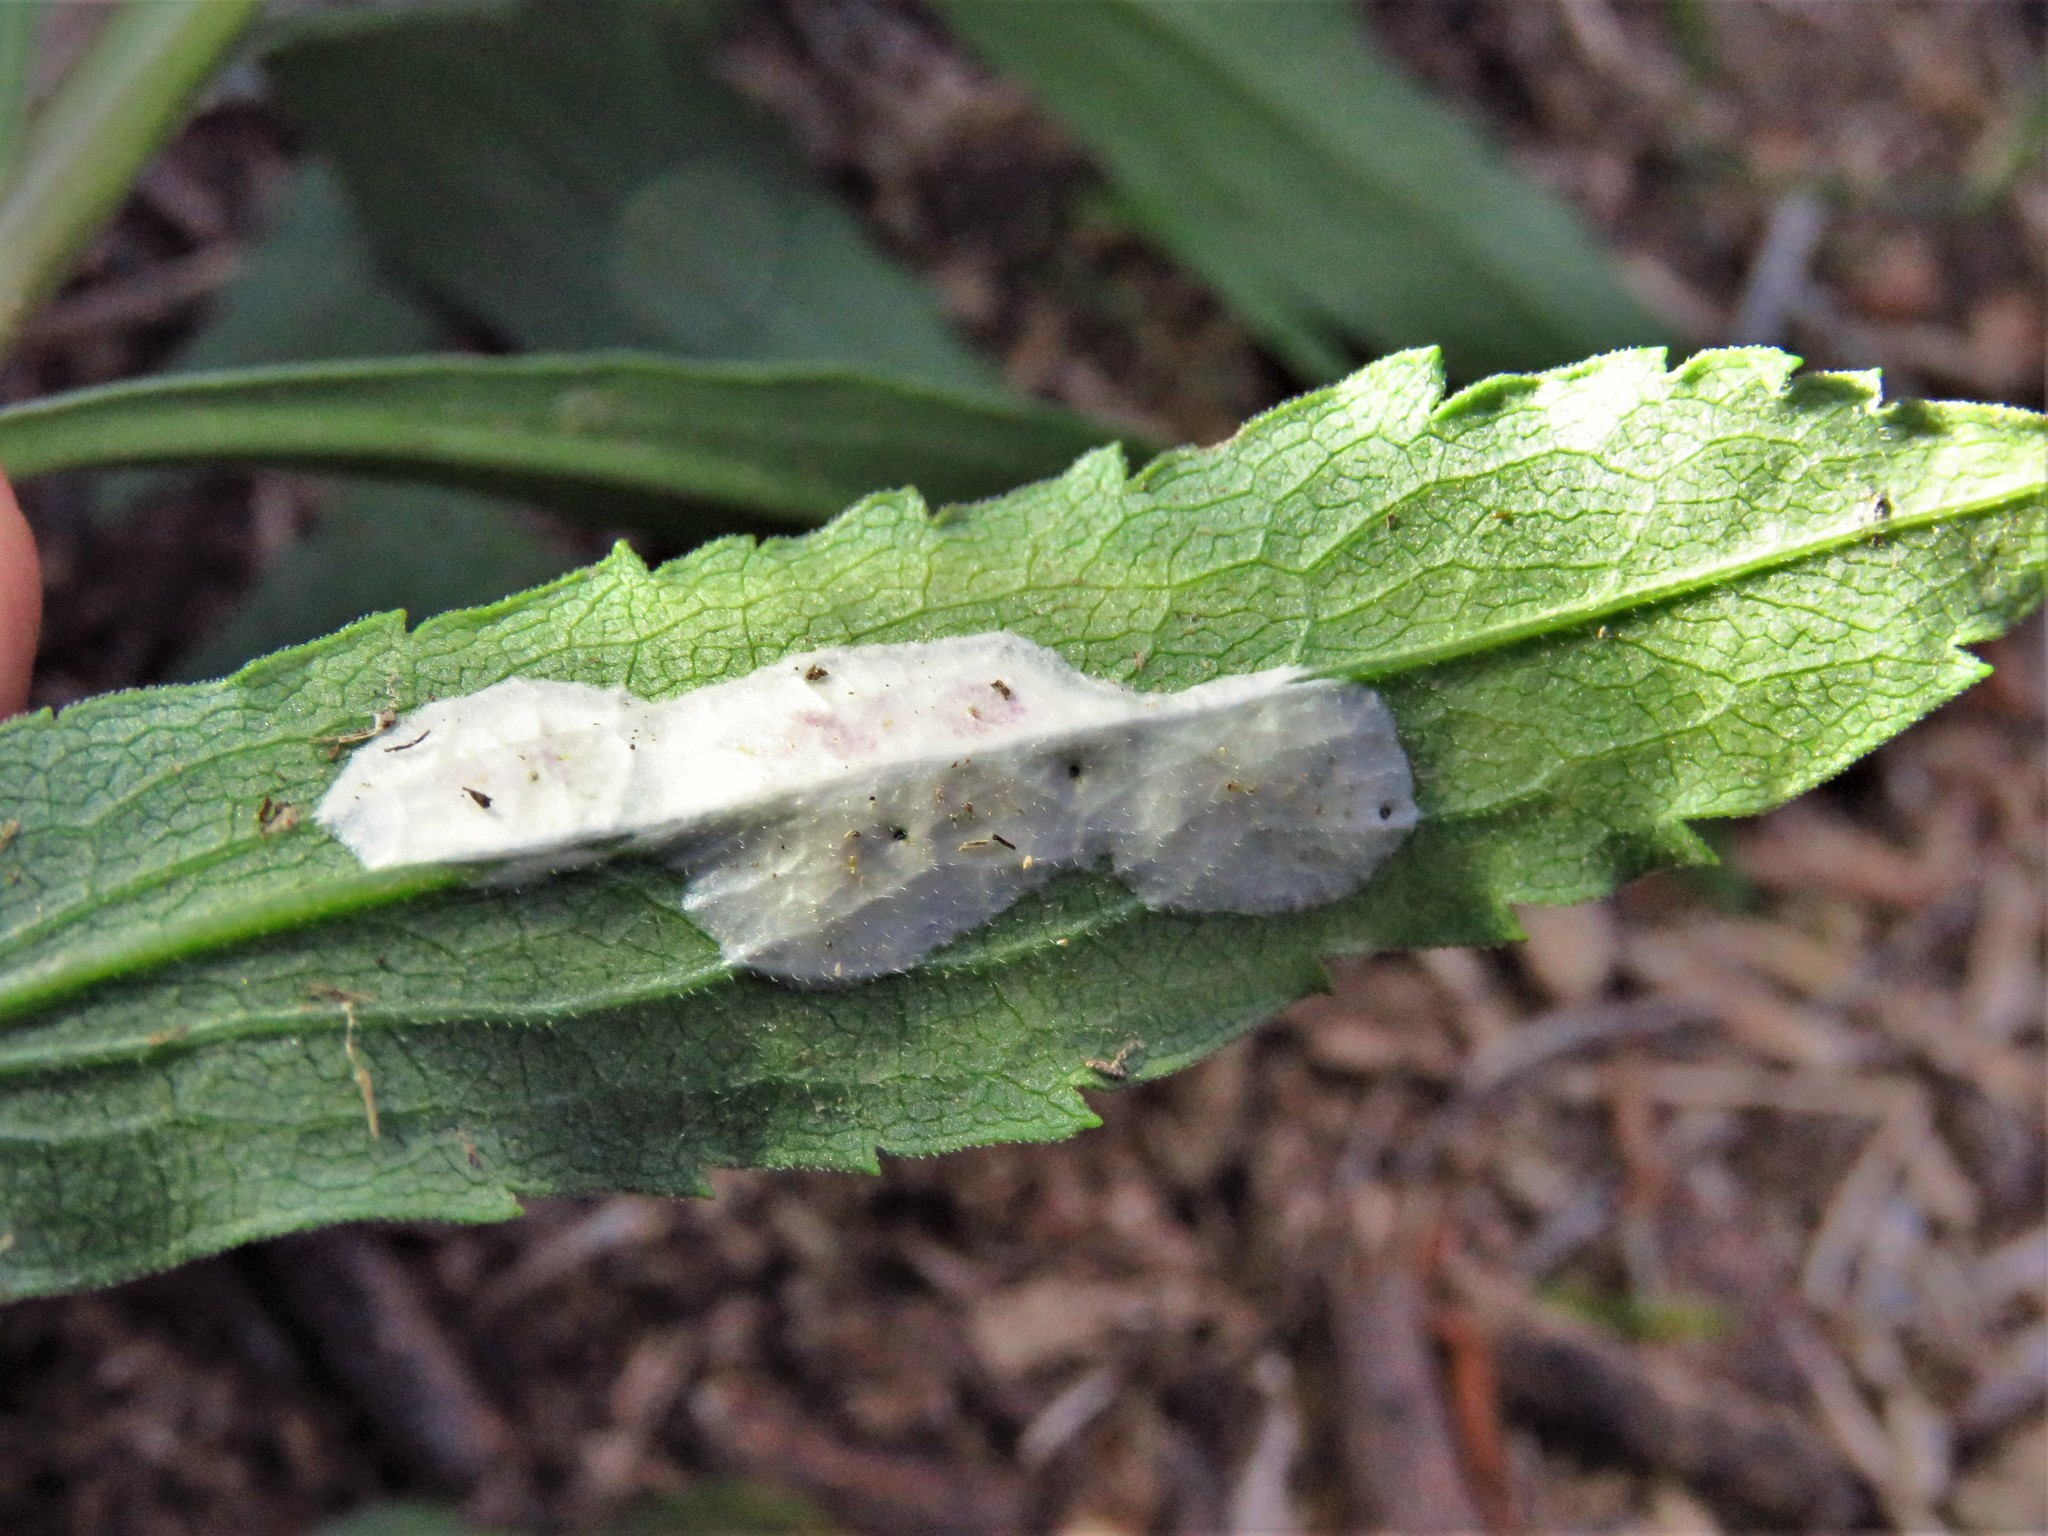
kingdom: Animalia
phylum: Arthropoda
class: Insecta
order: Diptera
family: Cecidomyiidae
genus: Asteromyia
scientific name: Asteromyia carbonifera
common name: Carbonifera goldenrod gall midge
